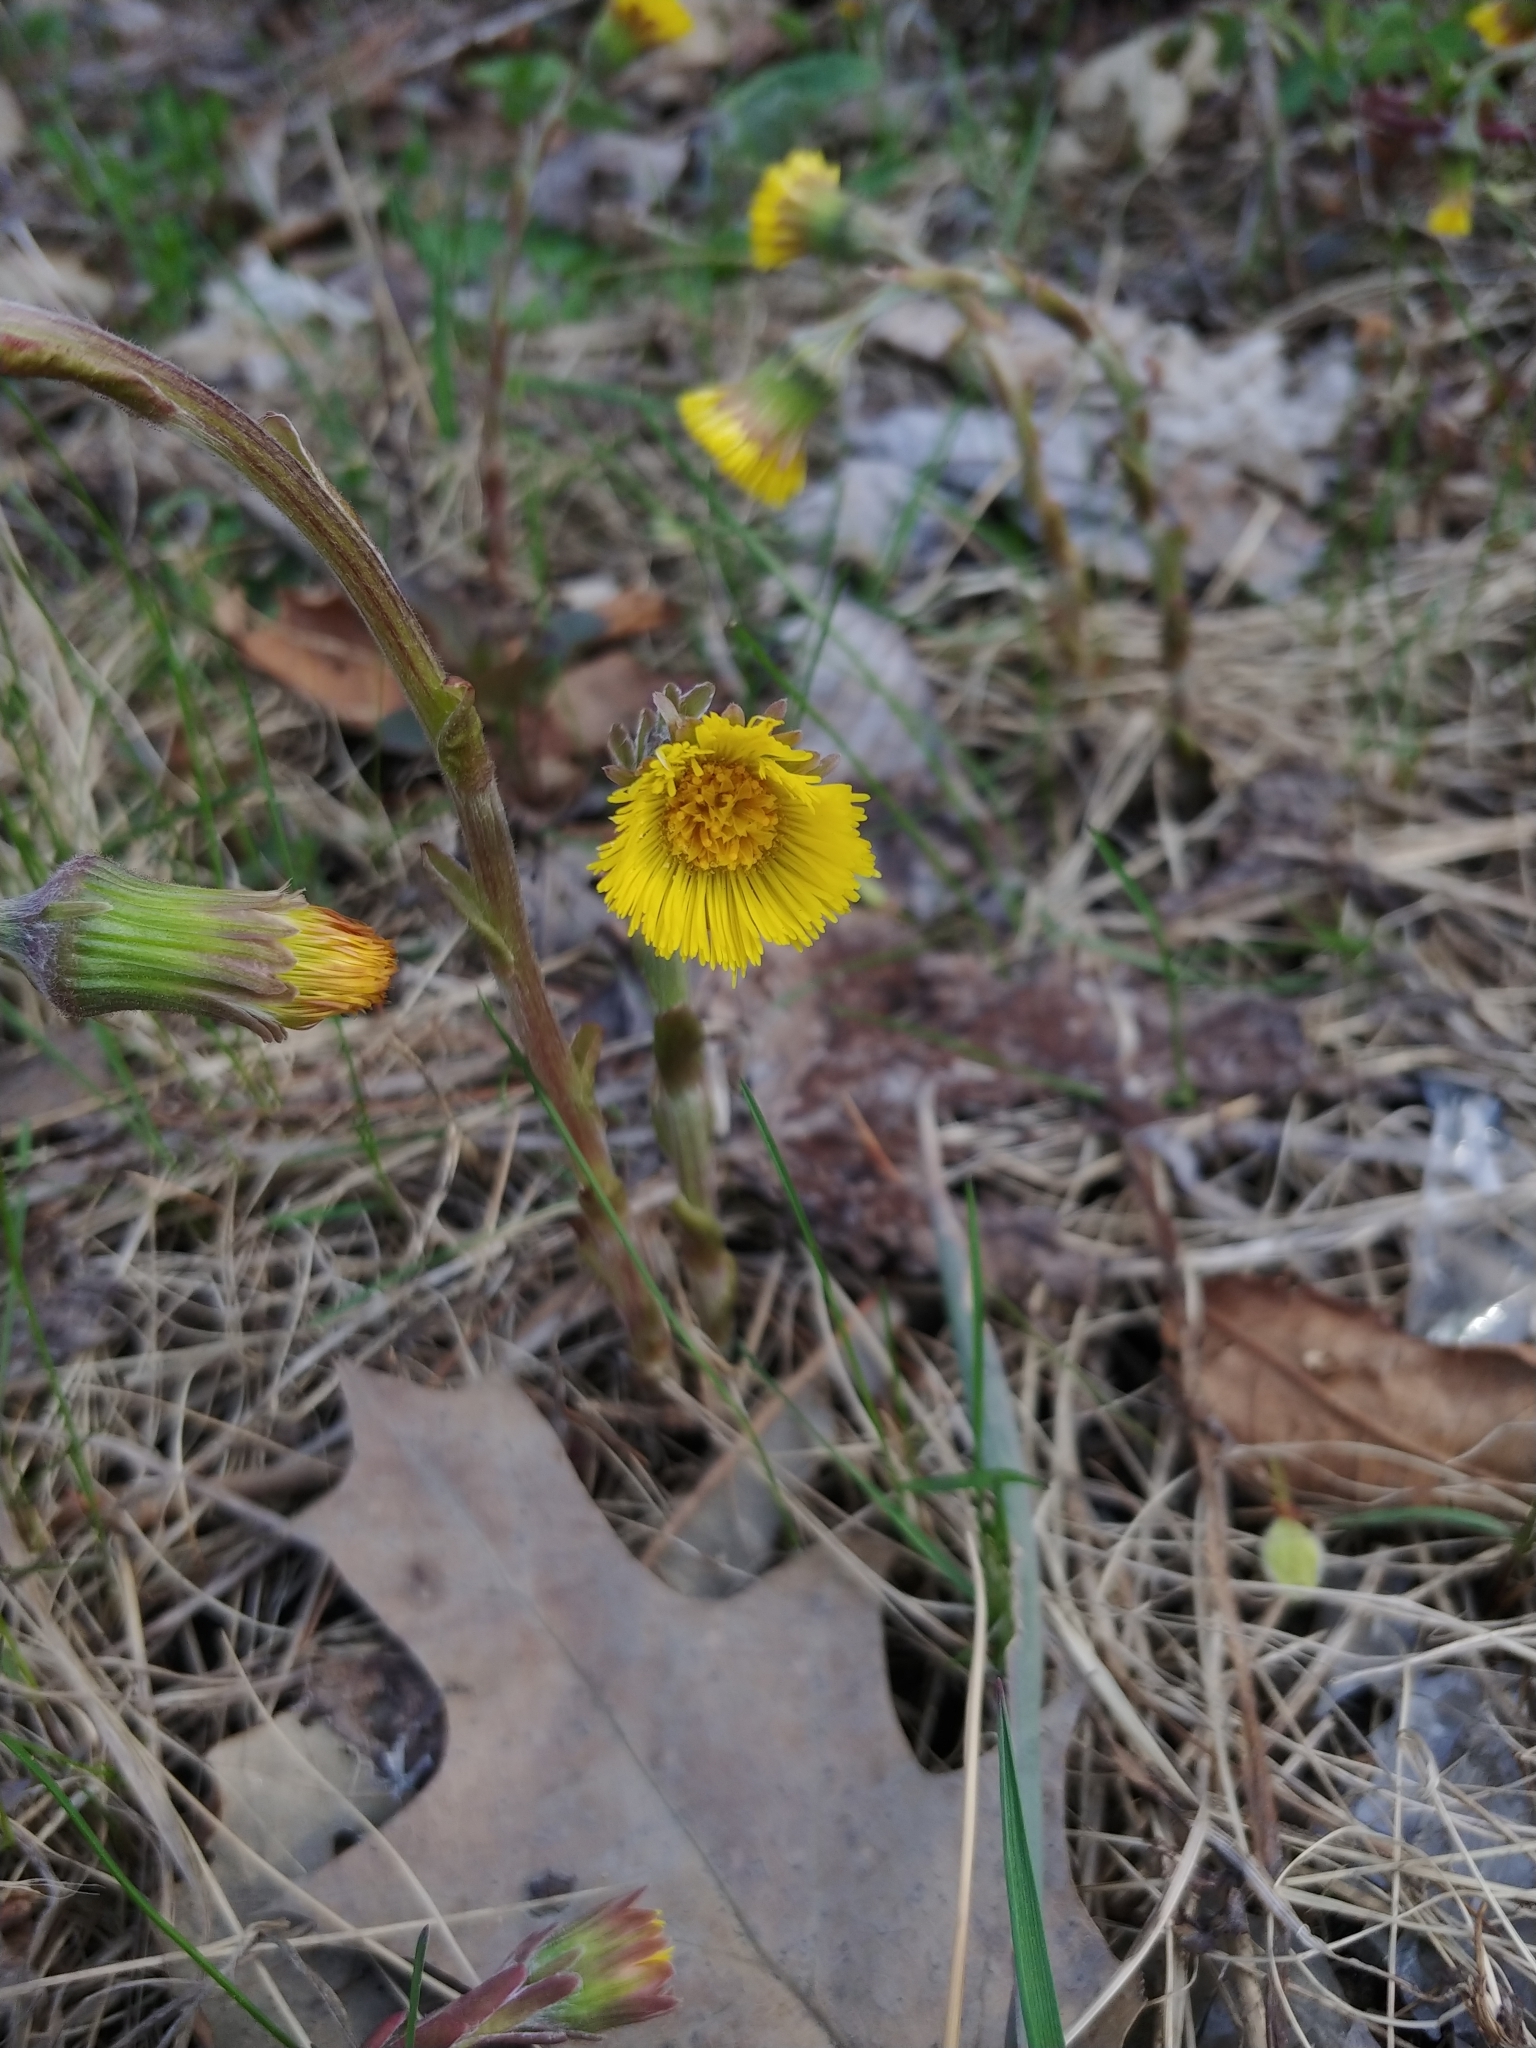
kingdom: Plantae
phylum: Tracheophyta
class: Magnoliopsida
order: Asterales
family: Asteraceae
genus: Tussilago
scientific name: Tussilago farfara
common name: Coltsfoot
